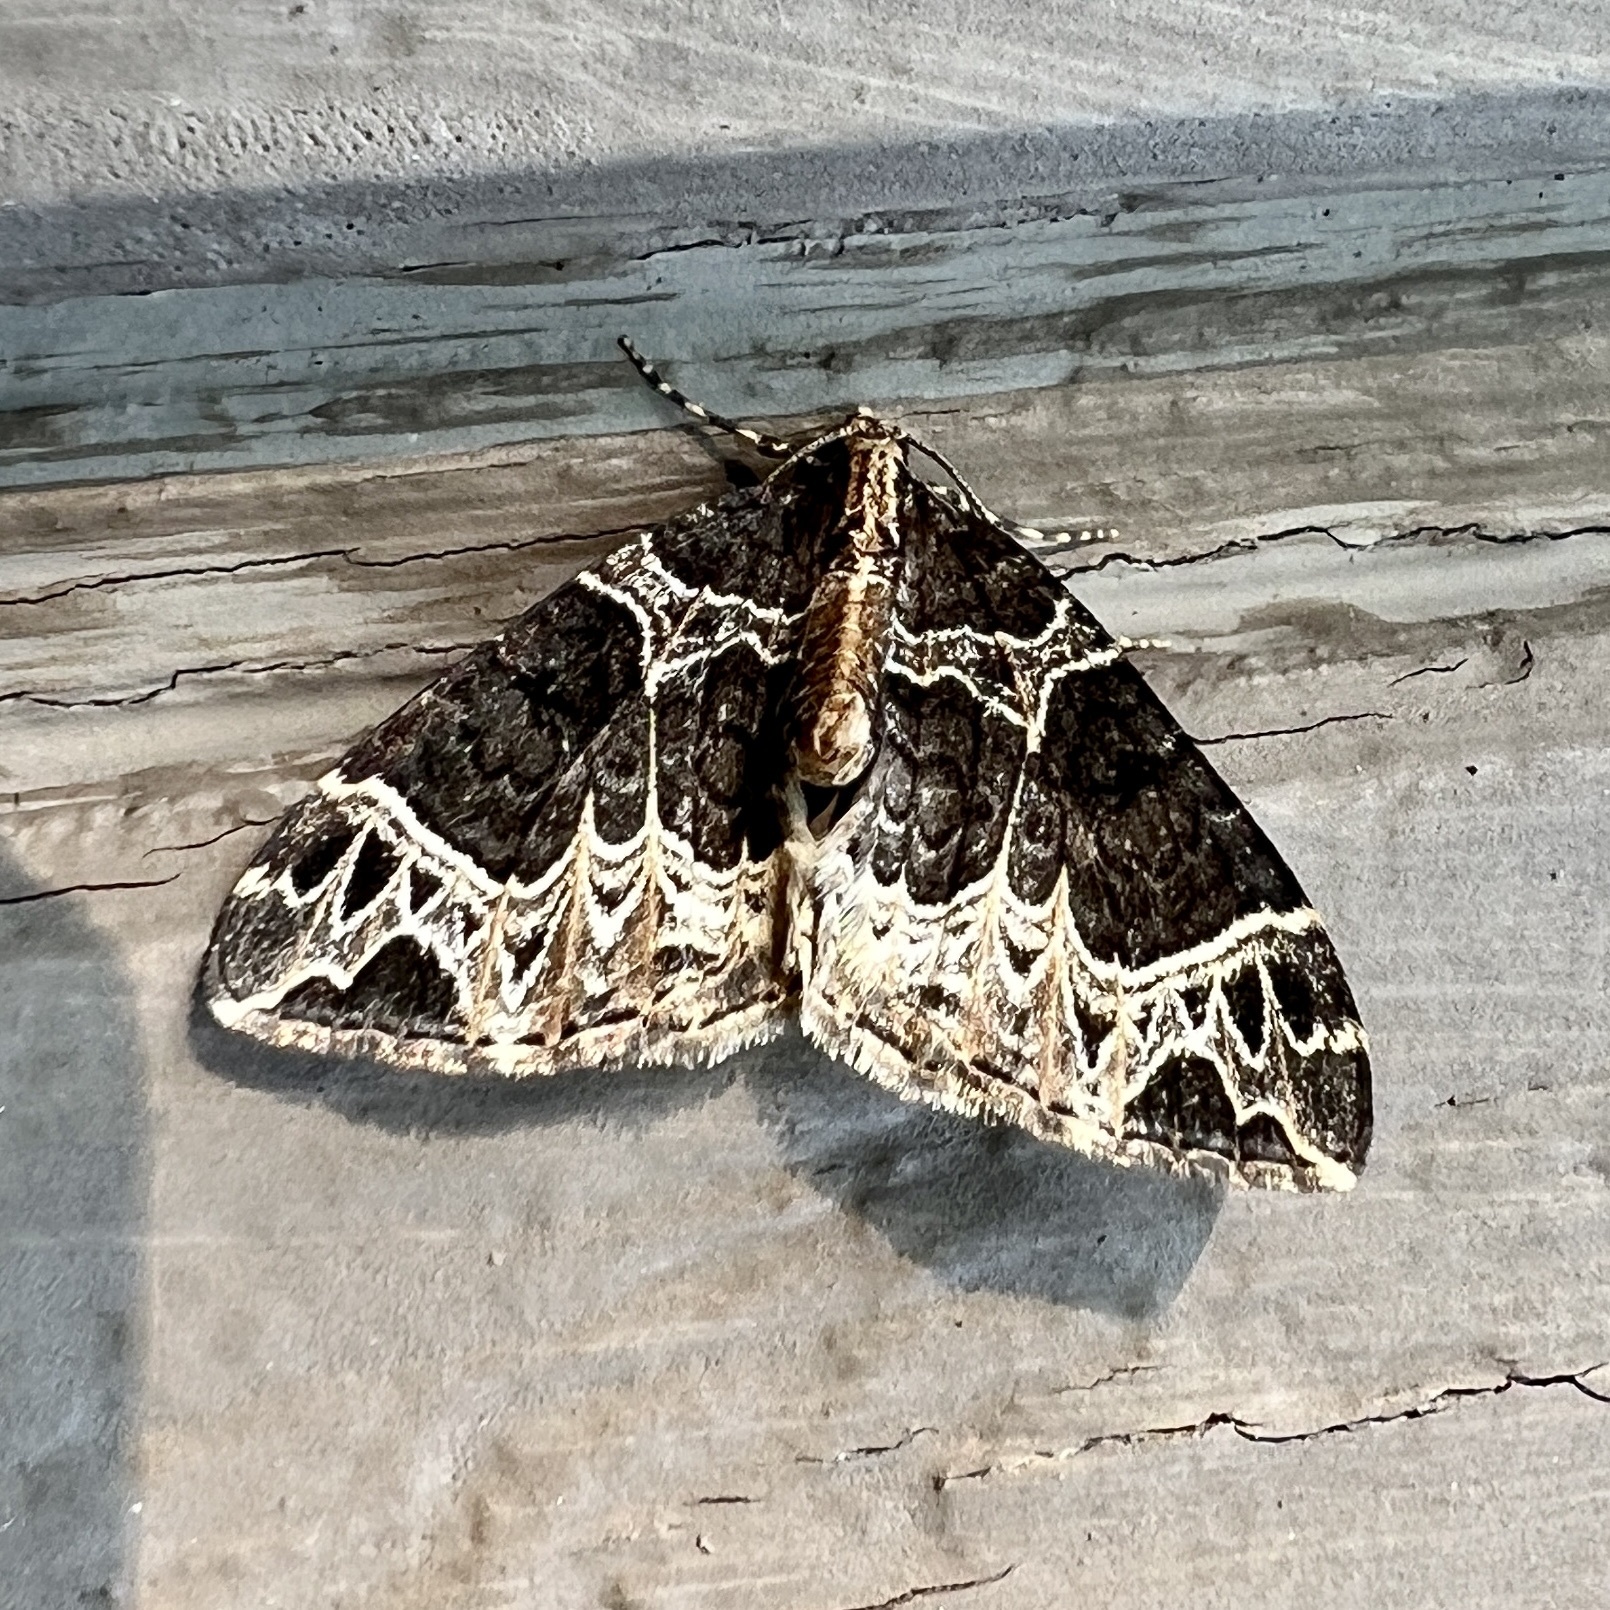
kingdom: Animalia
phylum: Arthropoda
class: Insecta
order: Lepidoptera
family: Geometridae
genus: Ecliptopera
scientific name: Ecliptopera silaceata
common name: Small phoenix
